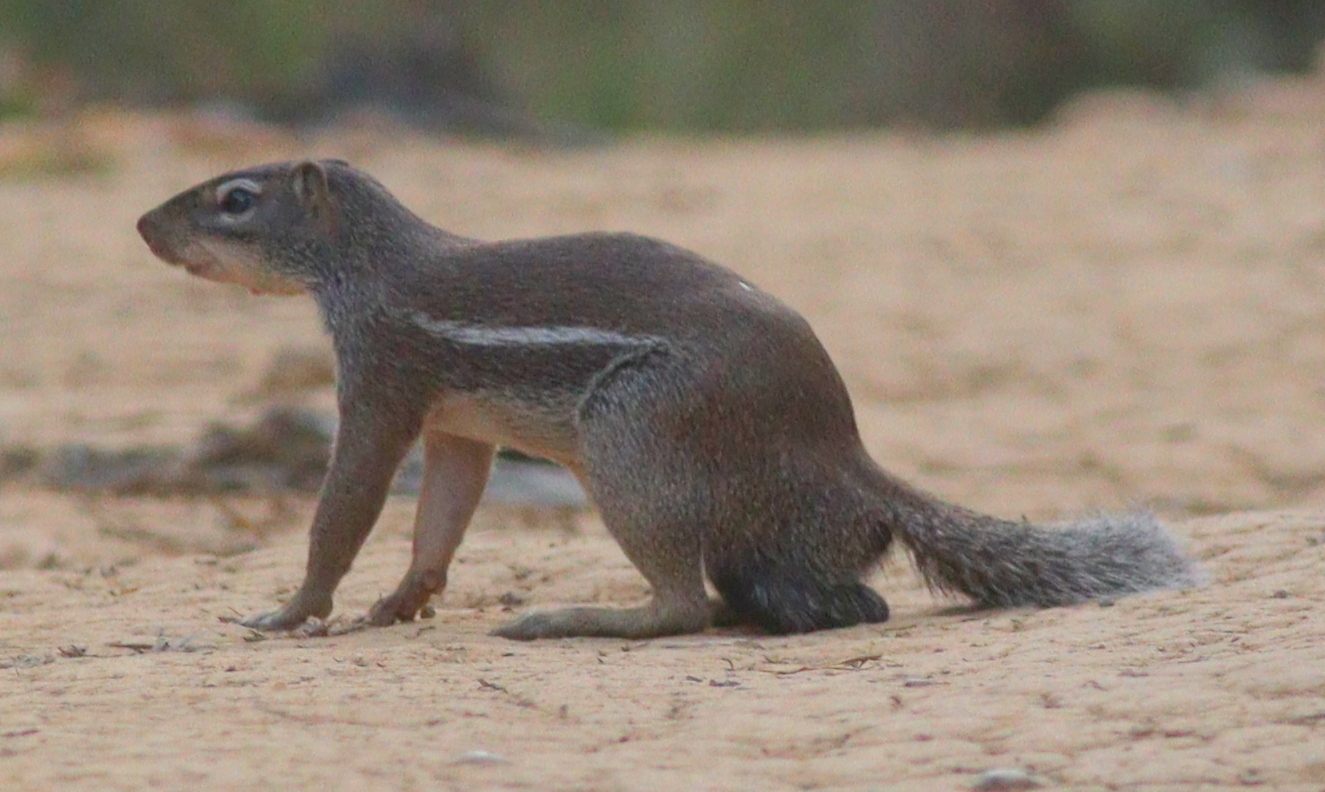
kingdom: Animalia
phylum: Chordata
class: Mammalia
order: Rodentia
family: Sciuridae
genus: Xerus
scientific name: Xerus erythropus
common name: Striped ground squirrel
